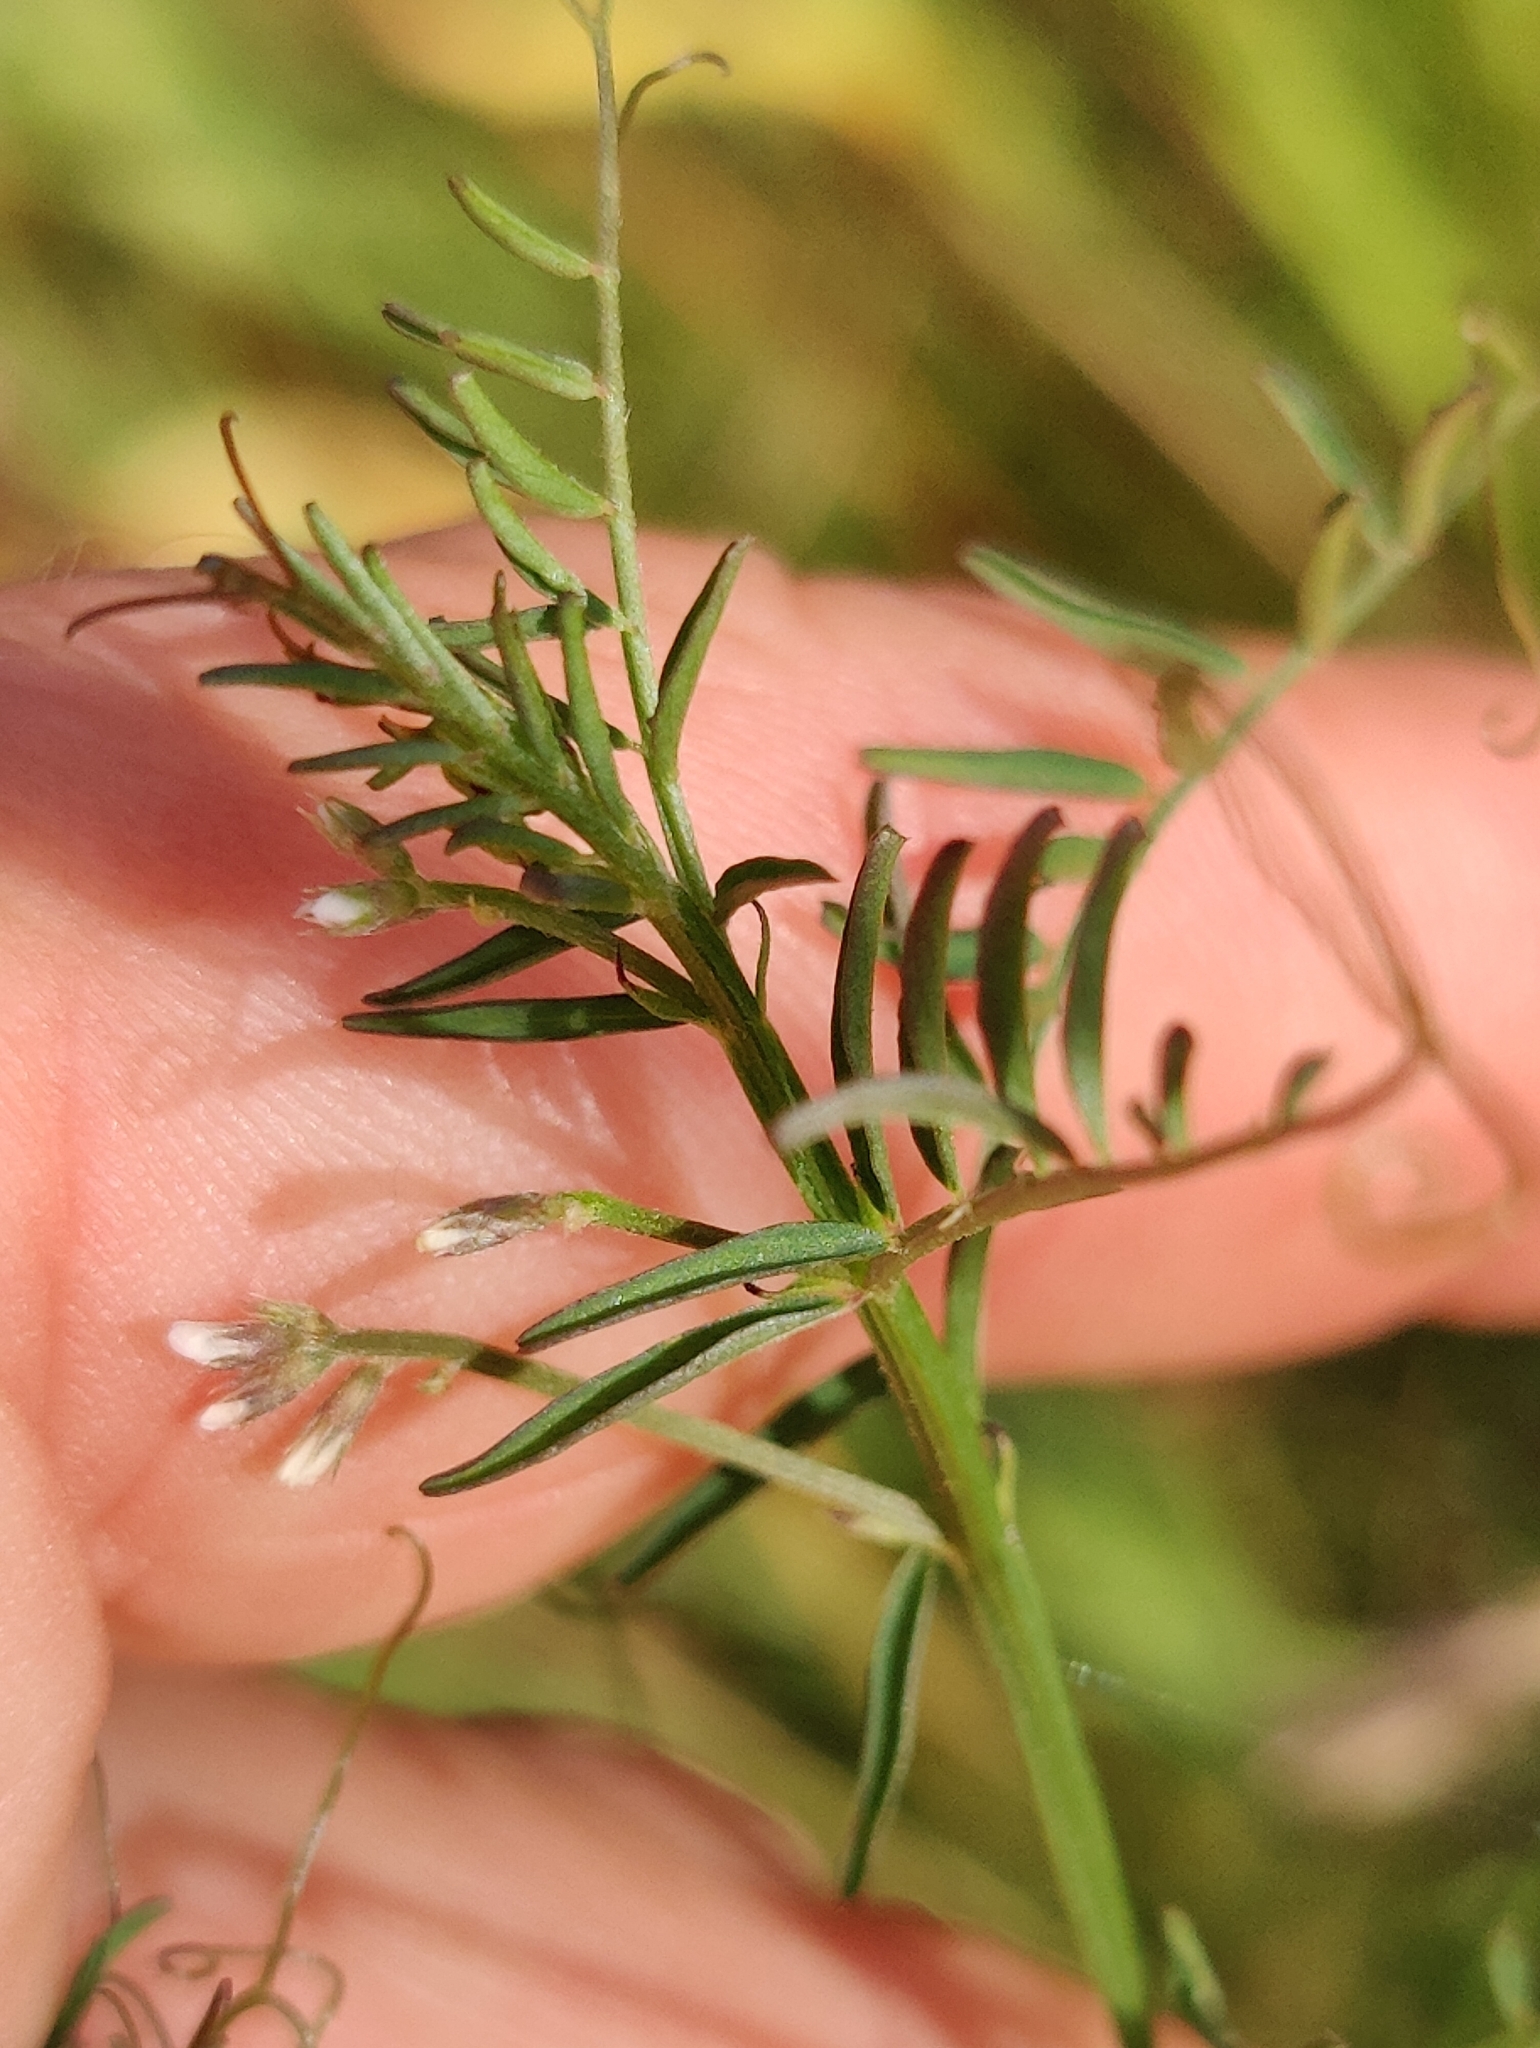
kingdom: Plantae
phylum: Tracheophyta
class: Magnoliopsida
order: Fabales
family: Fabaceae
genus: Vicia
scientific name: Vicia hirsuta
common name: Tiny vetch
